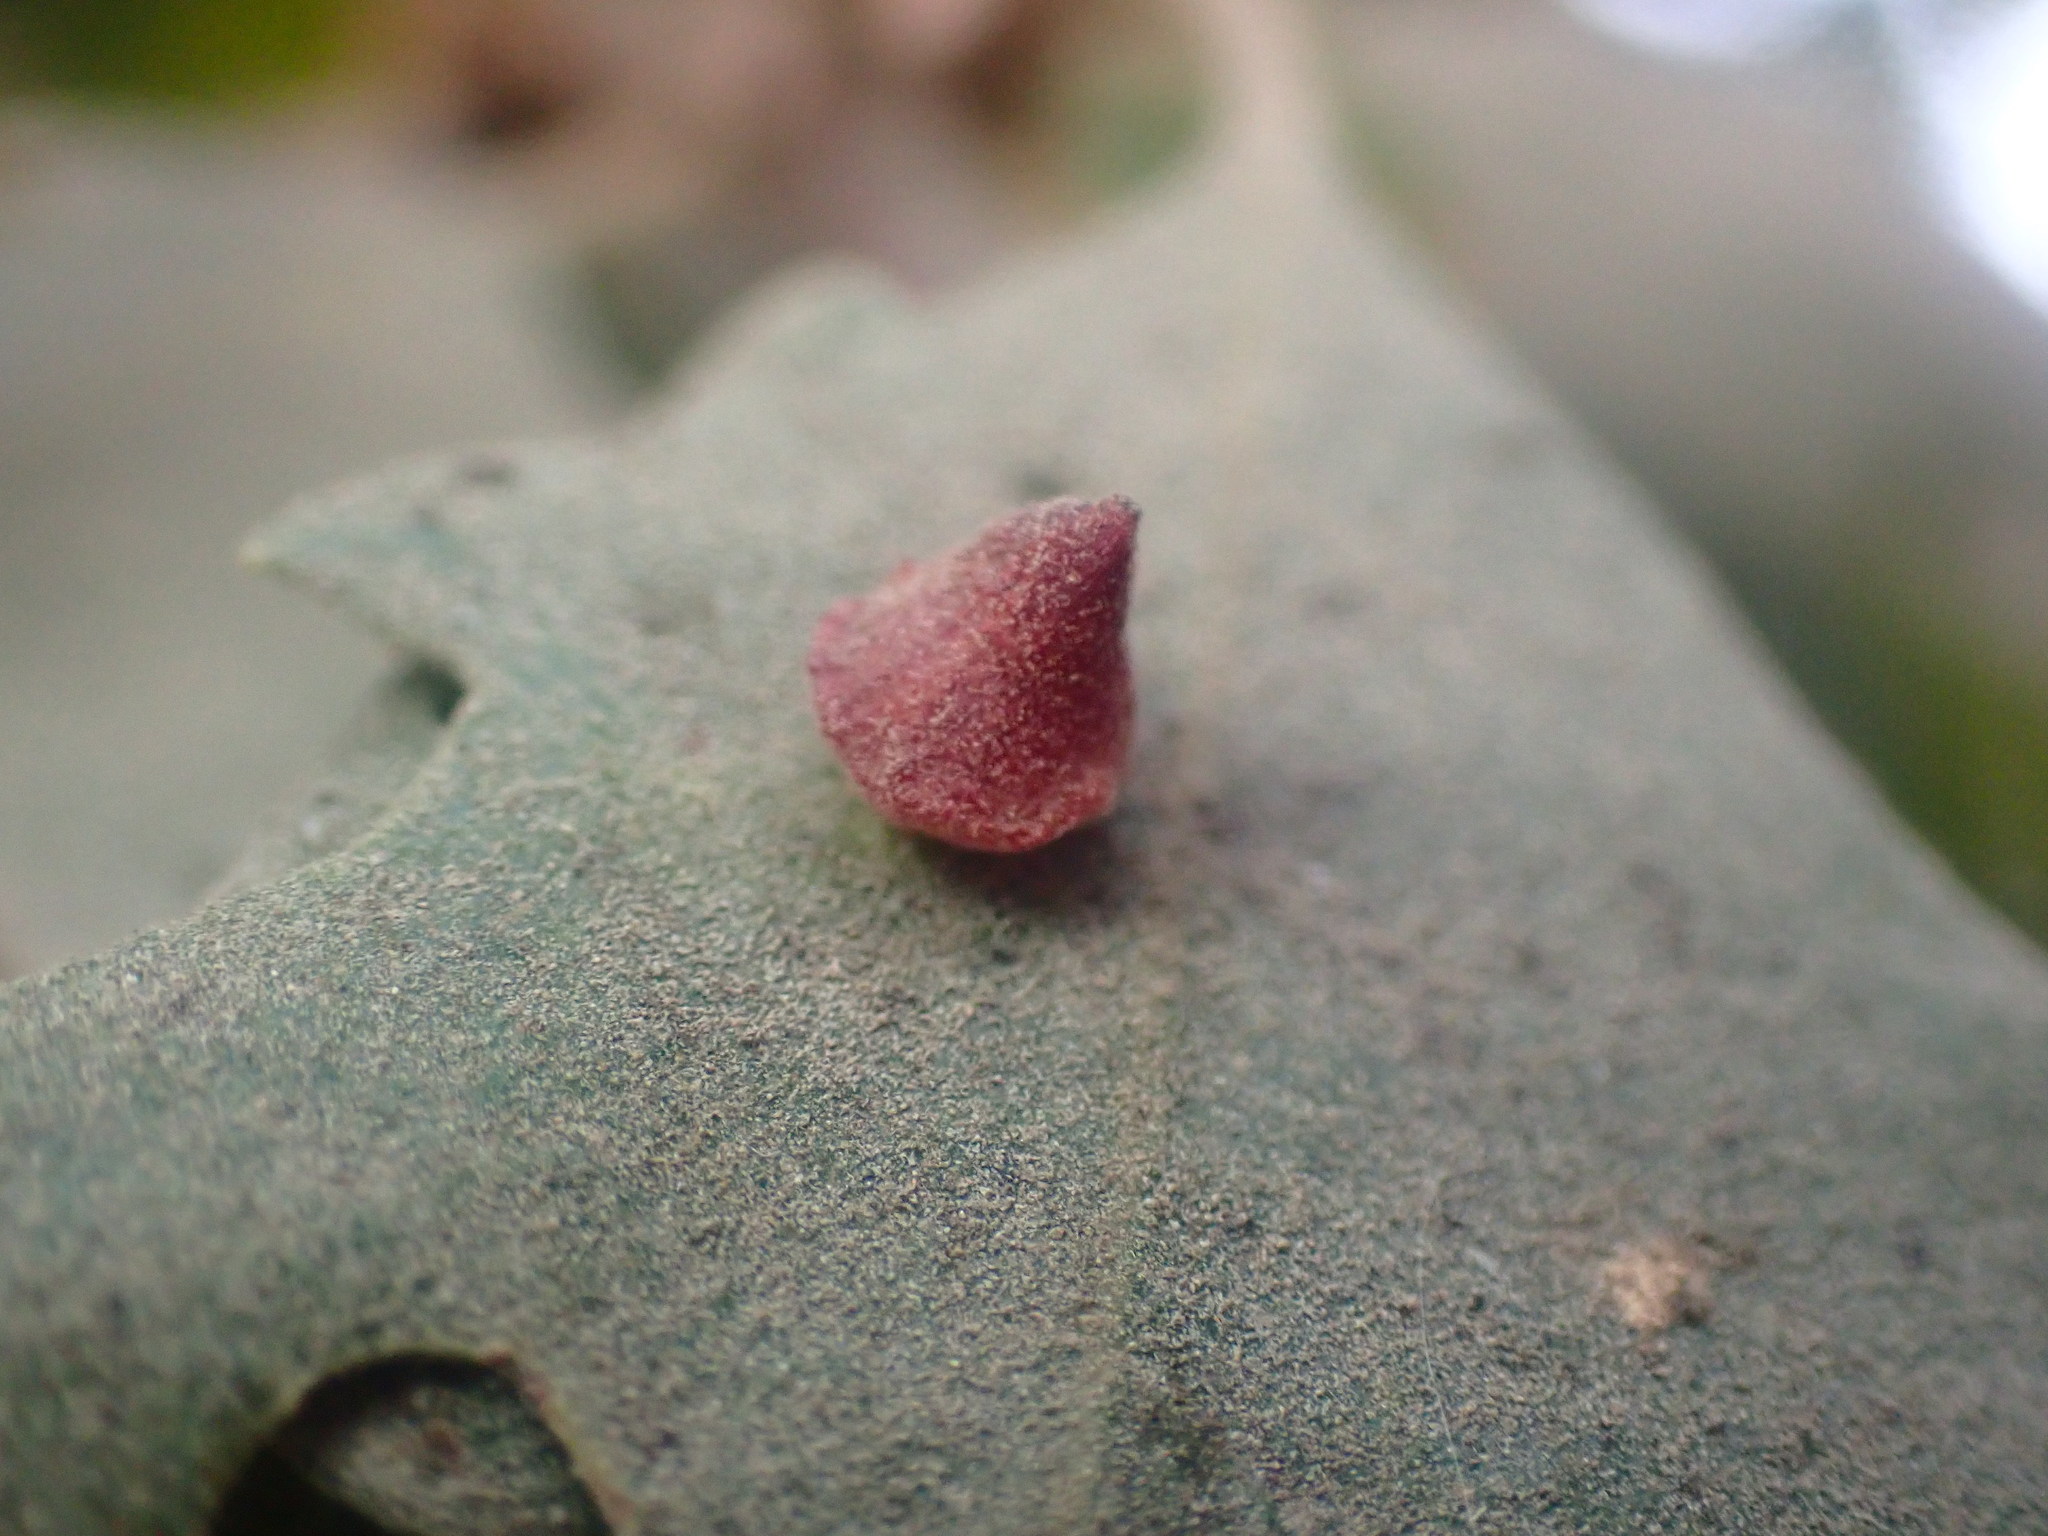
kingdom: Animalia
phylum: Arthropoda
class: Insecta
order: Hymenoptera
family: Cynipidae
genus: Andricus
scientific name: Andricus
